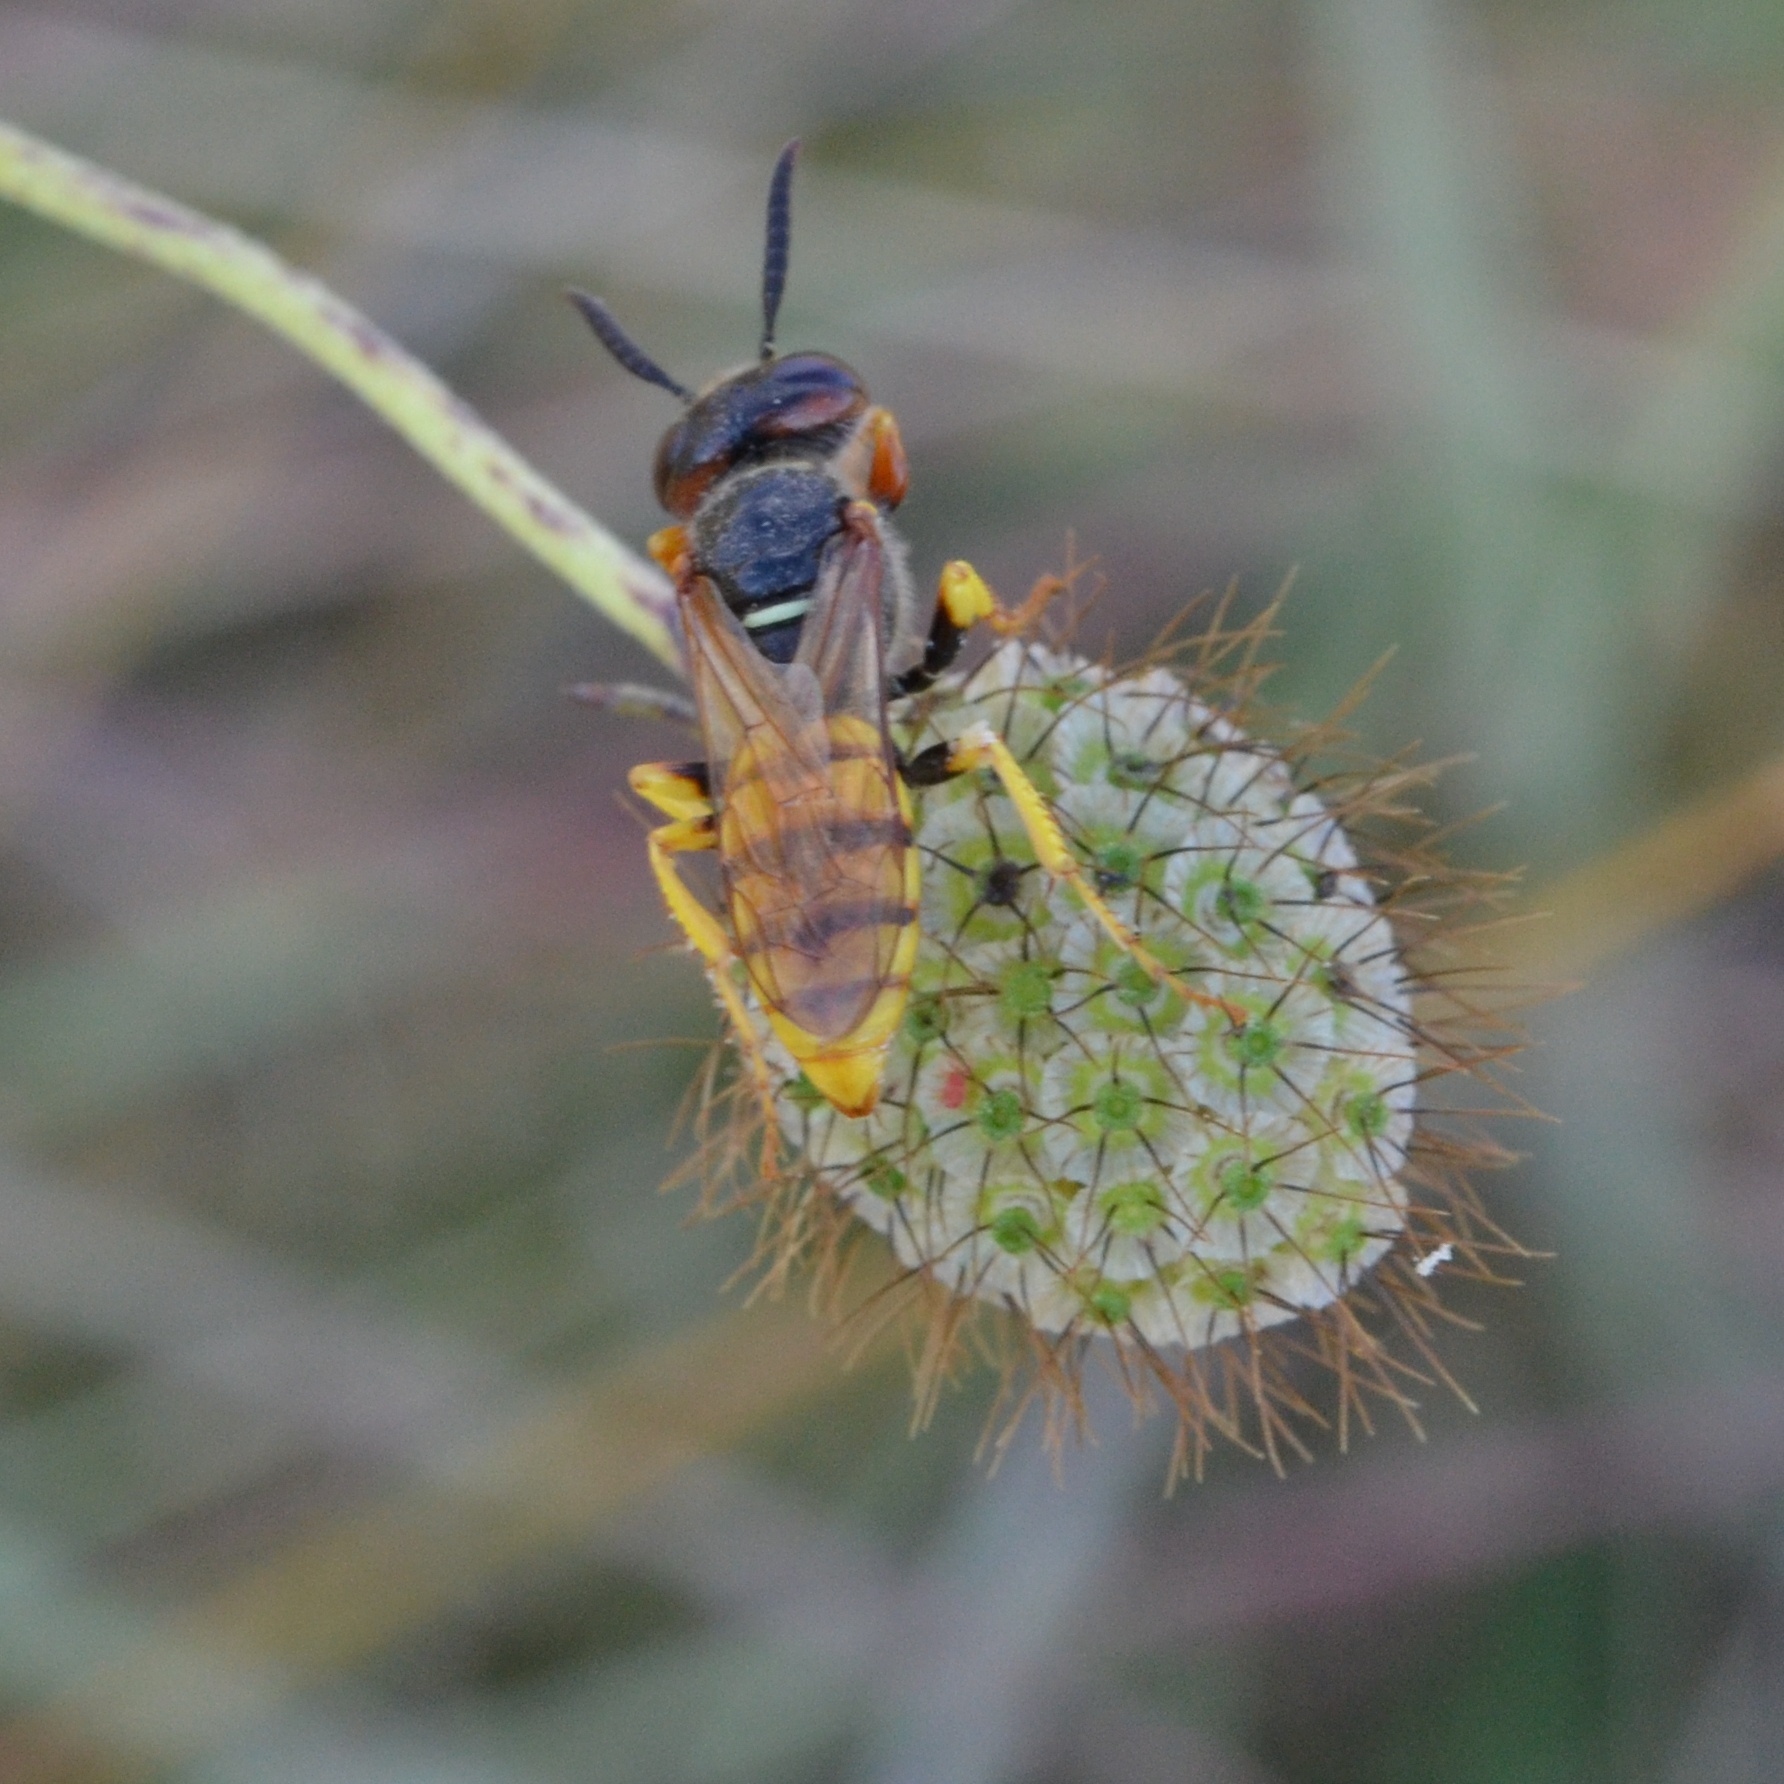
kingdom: Animalia
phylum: Arthropoda
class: Insecta
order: Hymenoptera
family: Crabronidae
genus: Philanthus
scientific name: Philanthus triangulum
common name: Bee wolf
